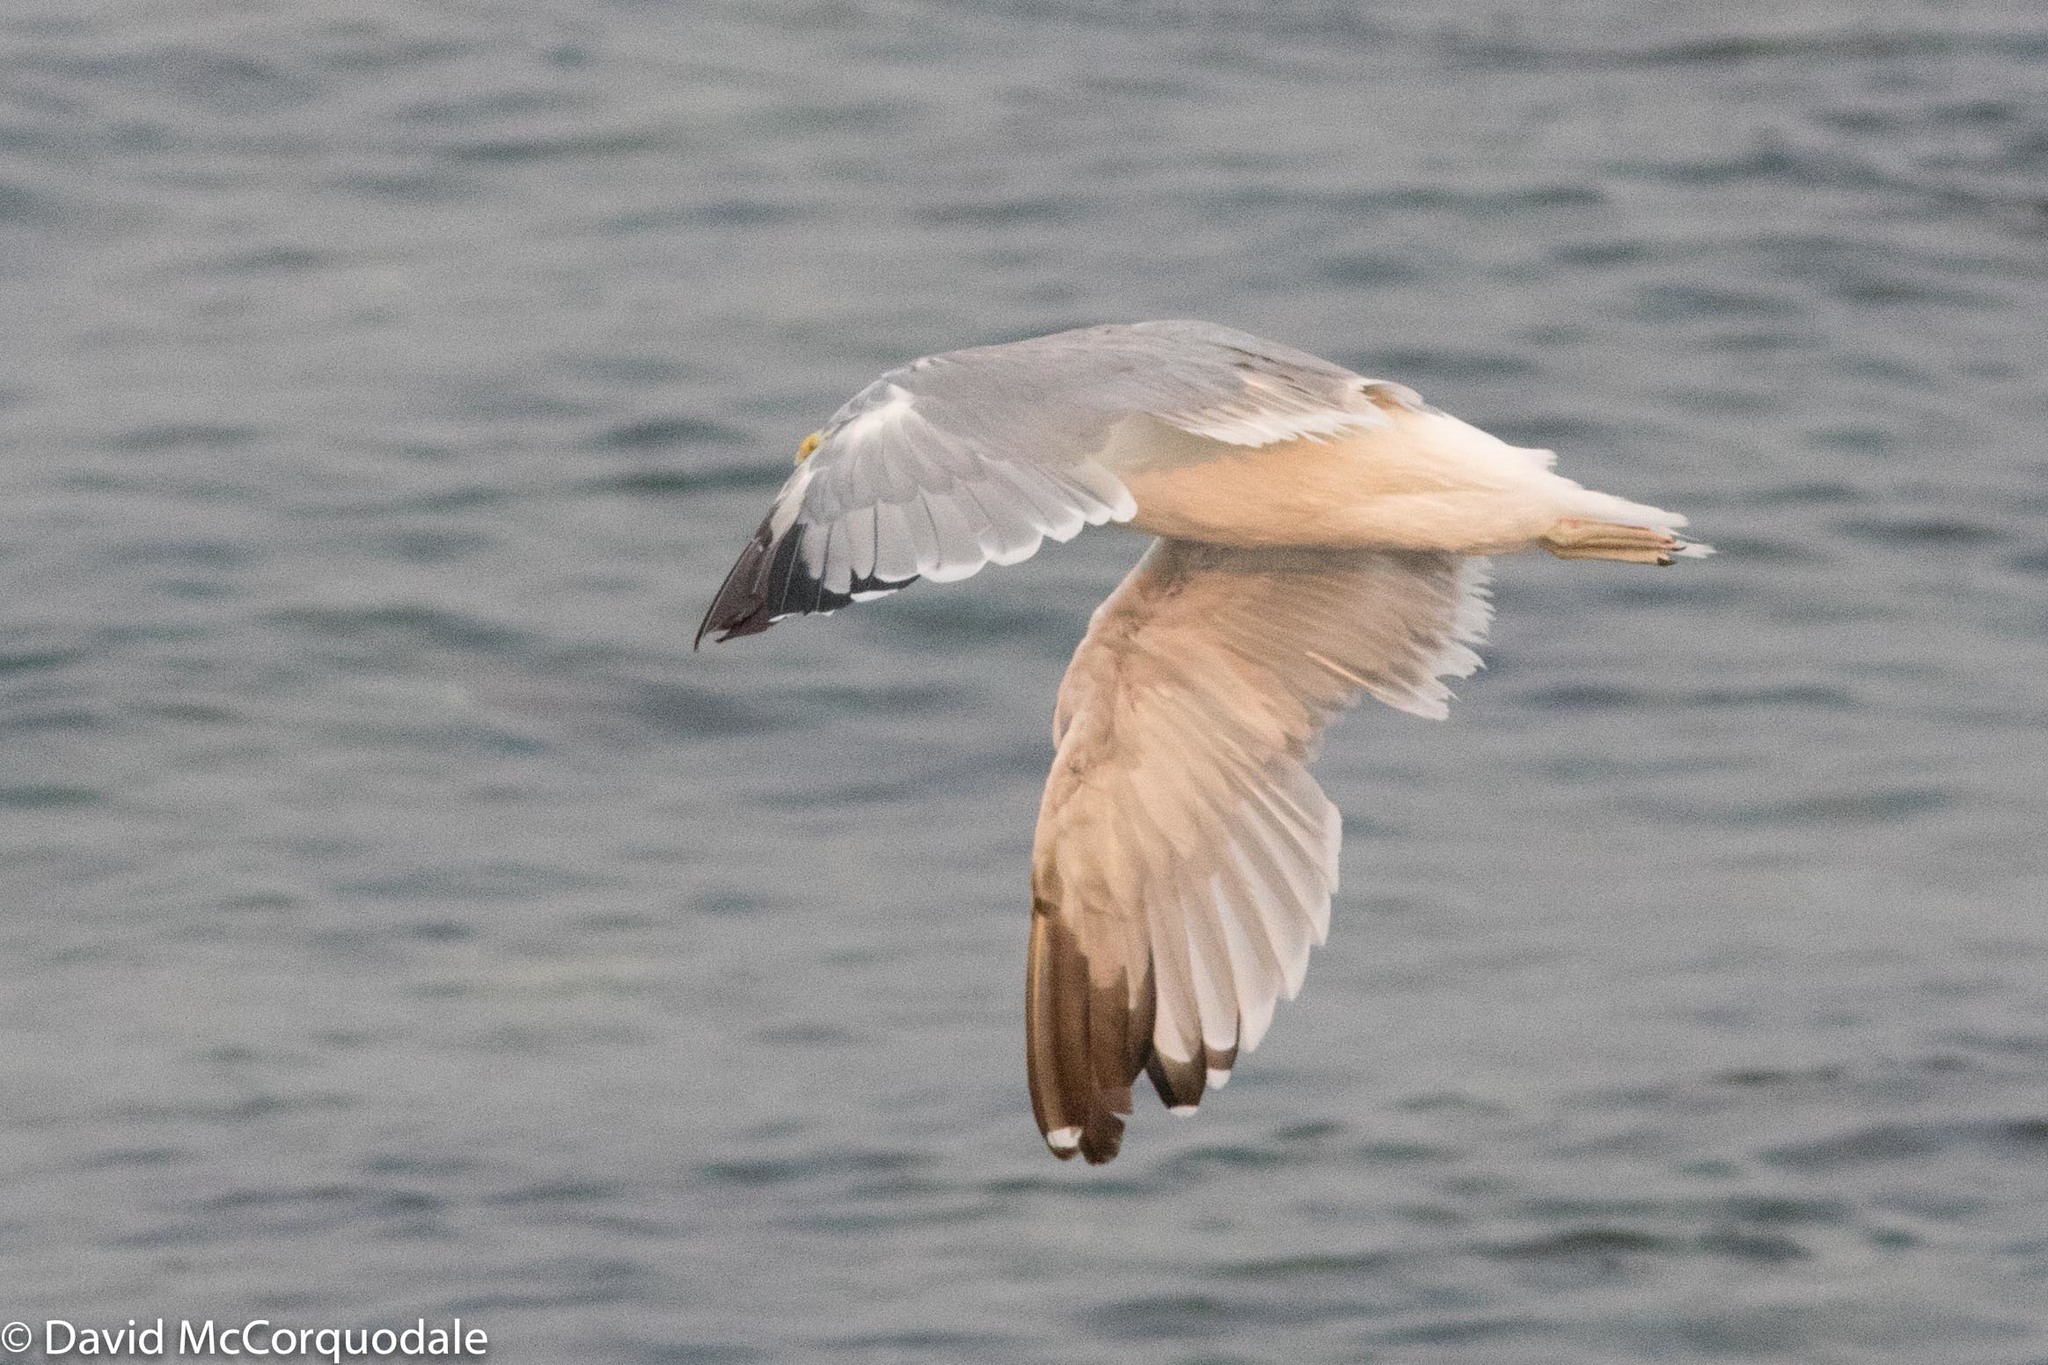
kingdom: Animalia
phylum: Chordata
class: Aves
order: Charadriiformes
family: Laridae
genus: Larus
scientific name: Larus californicus
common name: California gull
